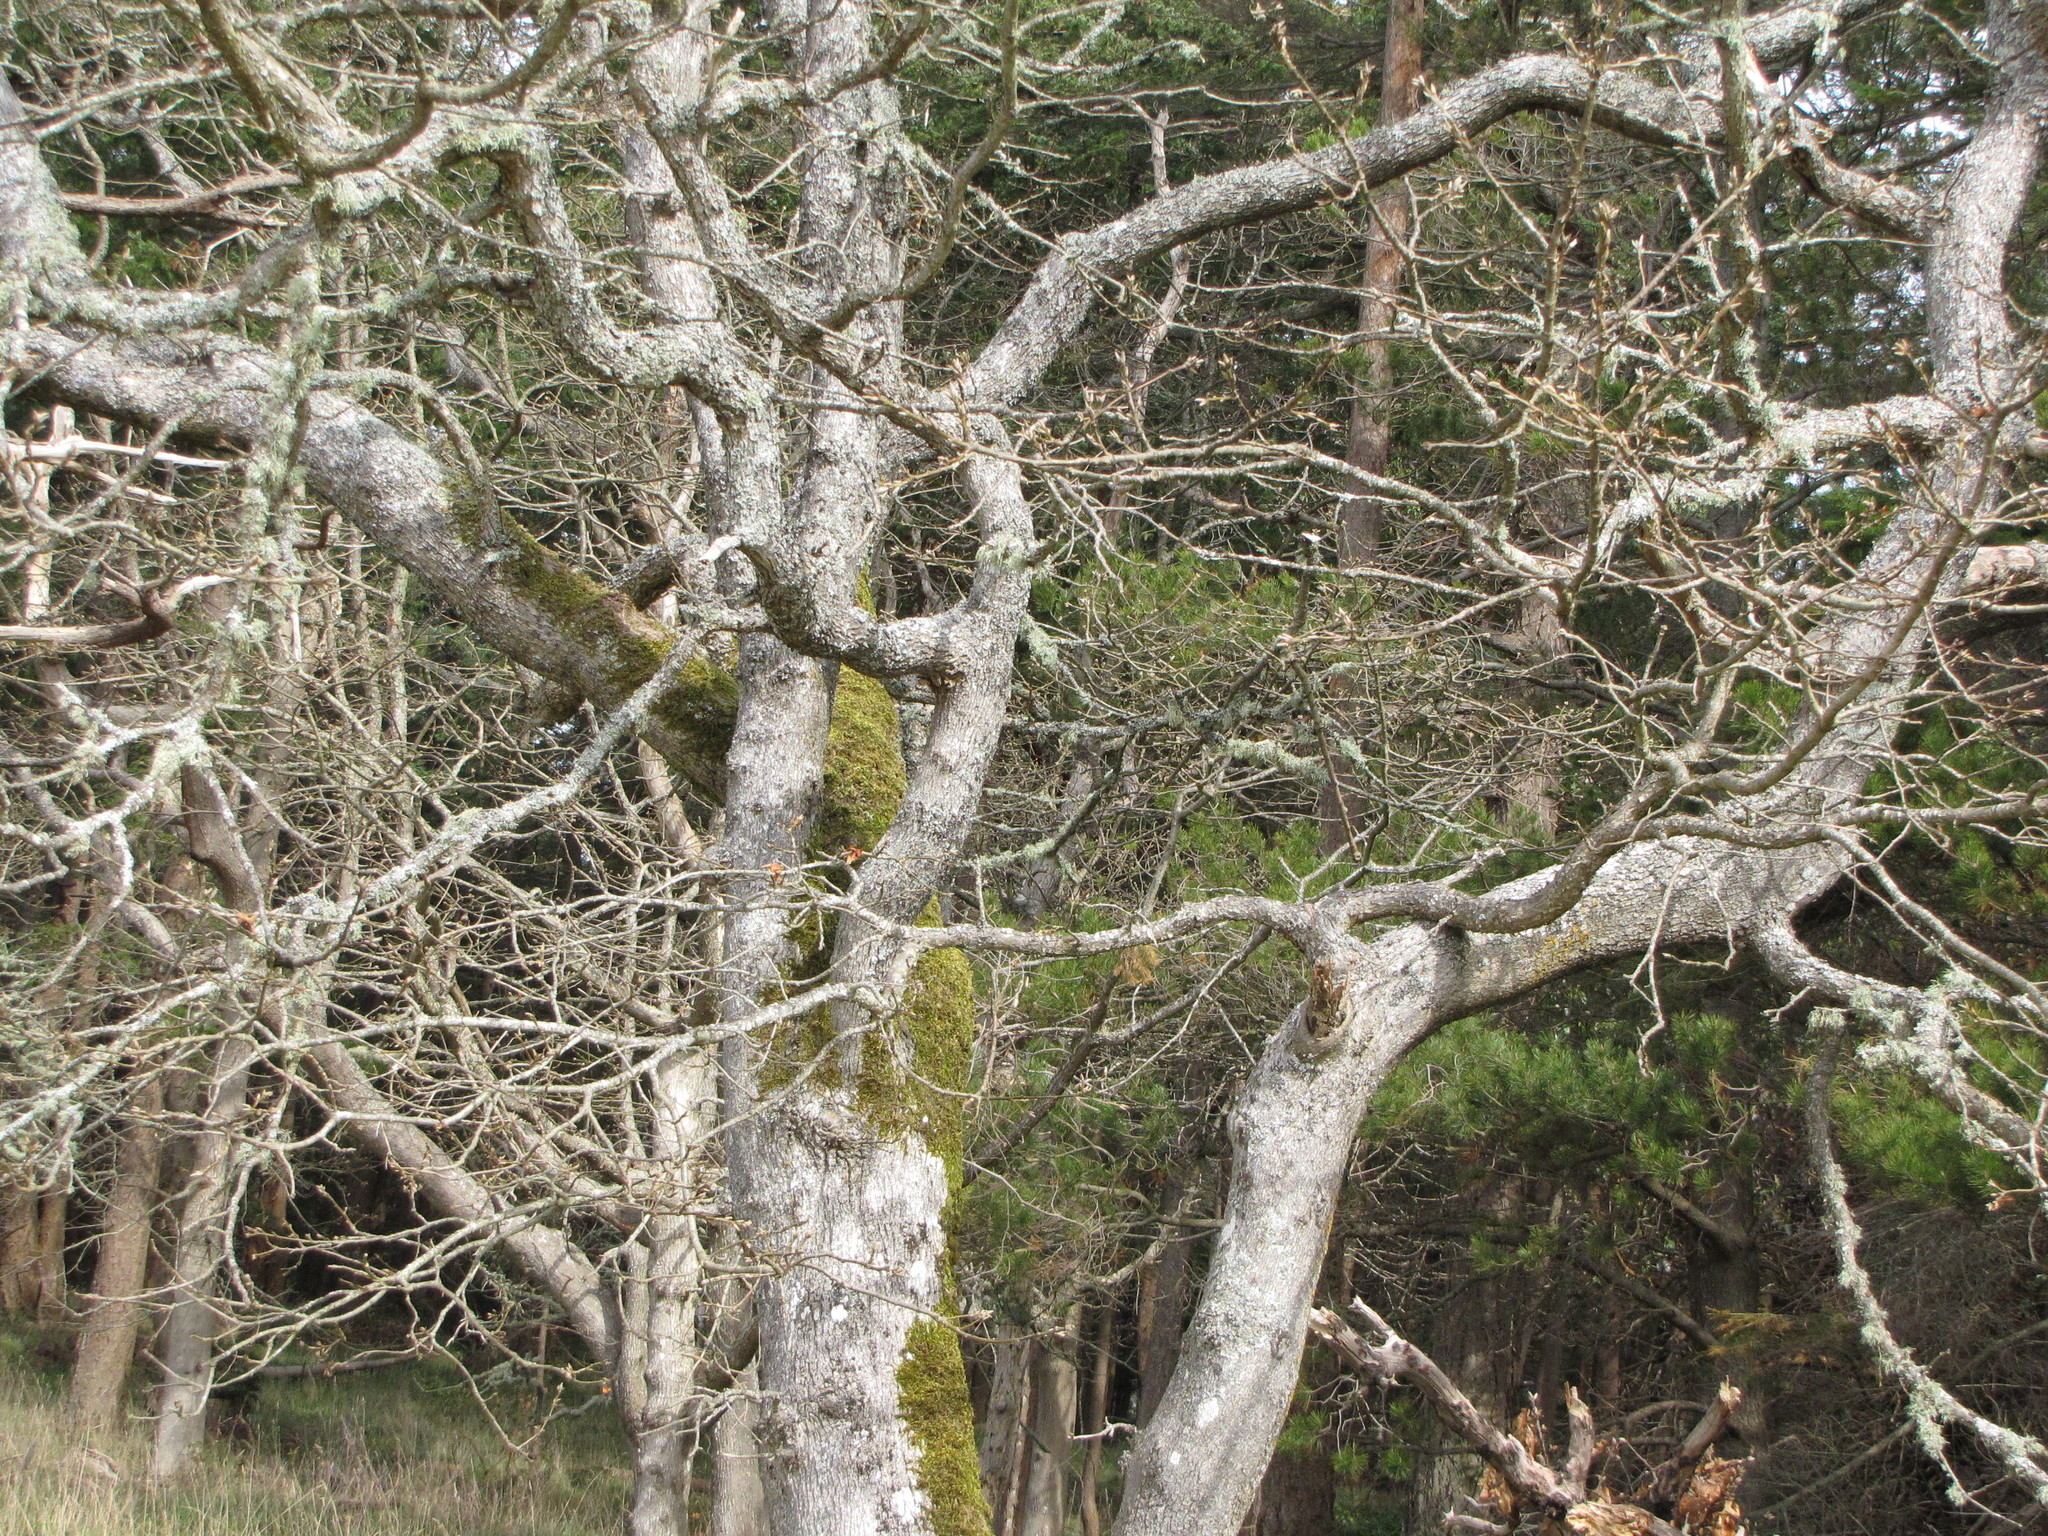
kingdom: Plantae
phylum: Tracheophyta
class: Magnoliopsida
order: Fagales
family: Fagaceae
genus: Quercus
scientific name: Quercus garryana
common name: Garry oak
